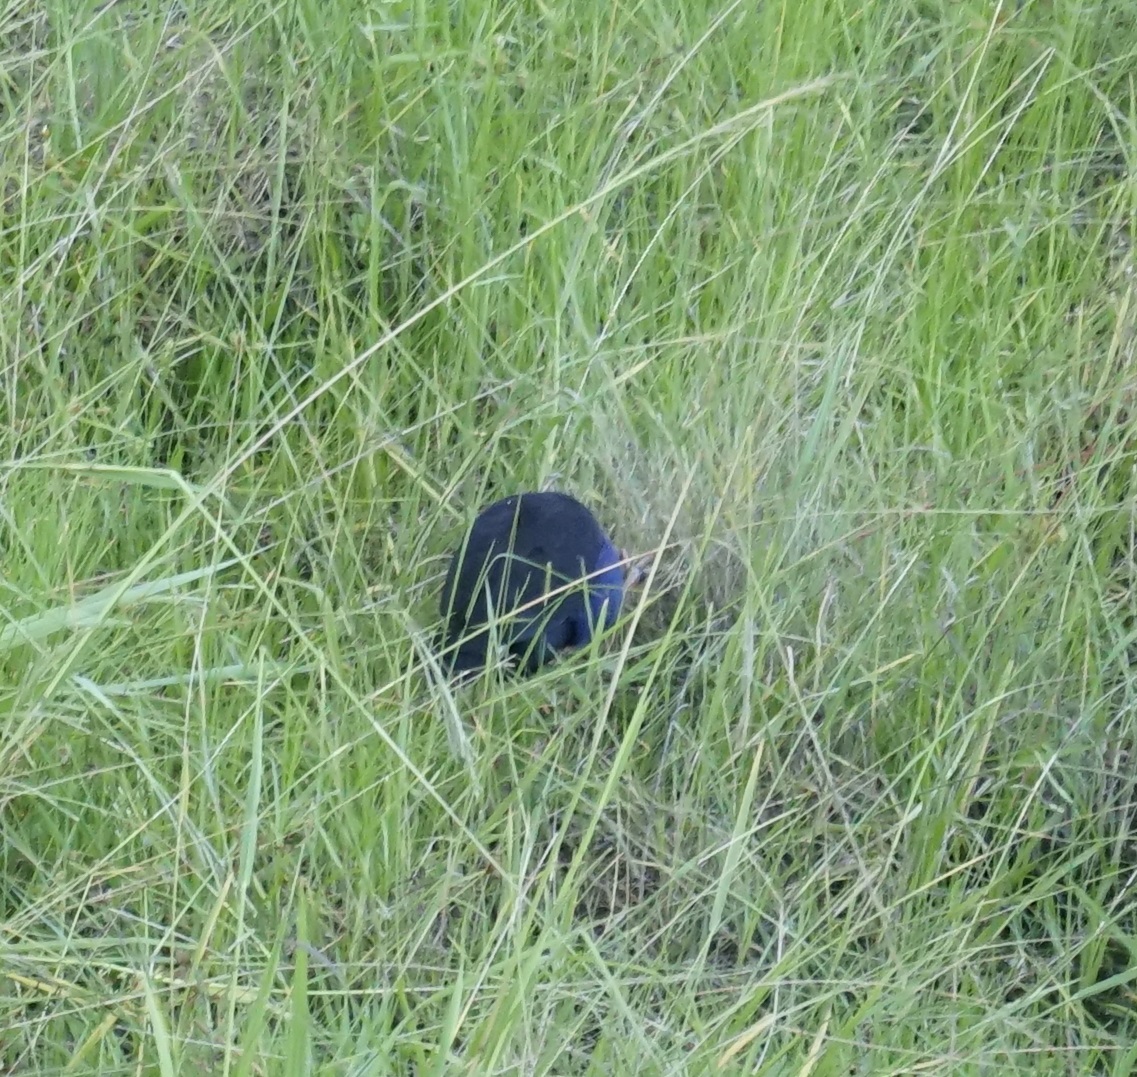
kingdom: Animalia
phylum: Chordata
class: Aves
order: Gruiformes
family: Rallidae
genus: Porphyrio
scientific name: Porphyrio melanotus
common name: Australasian swamphen
